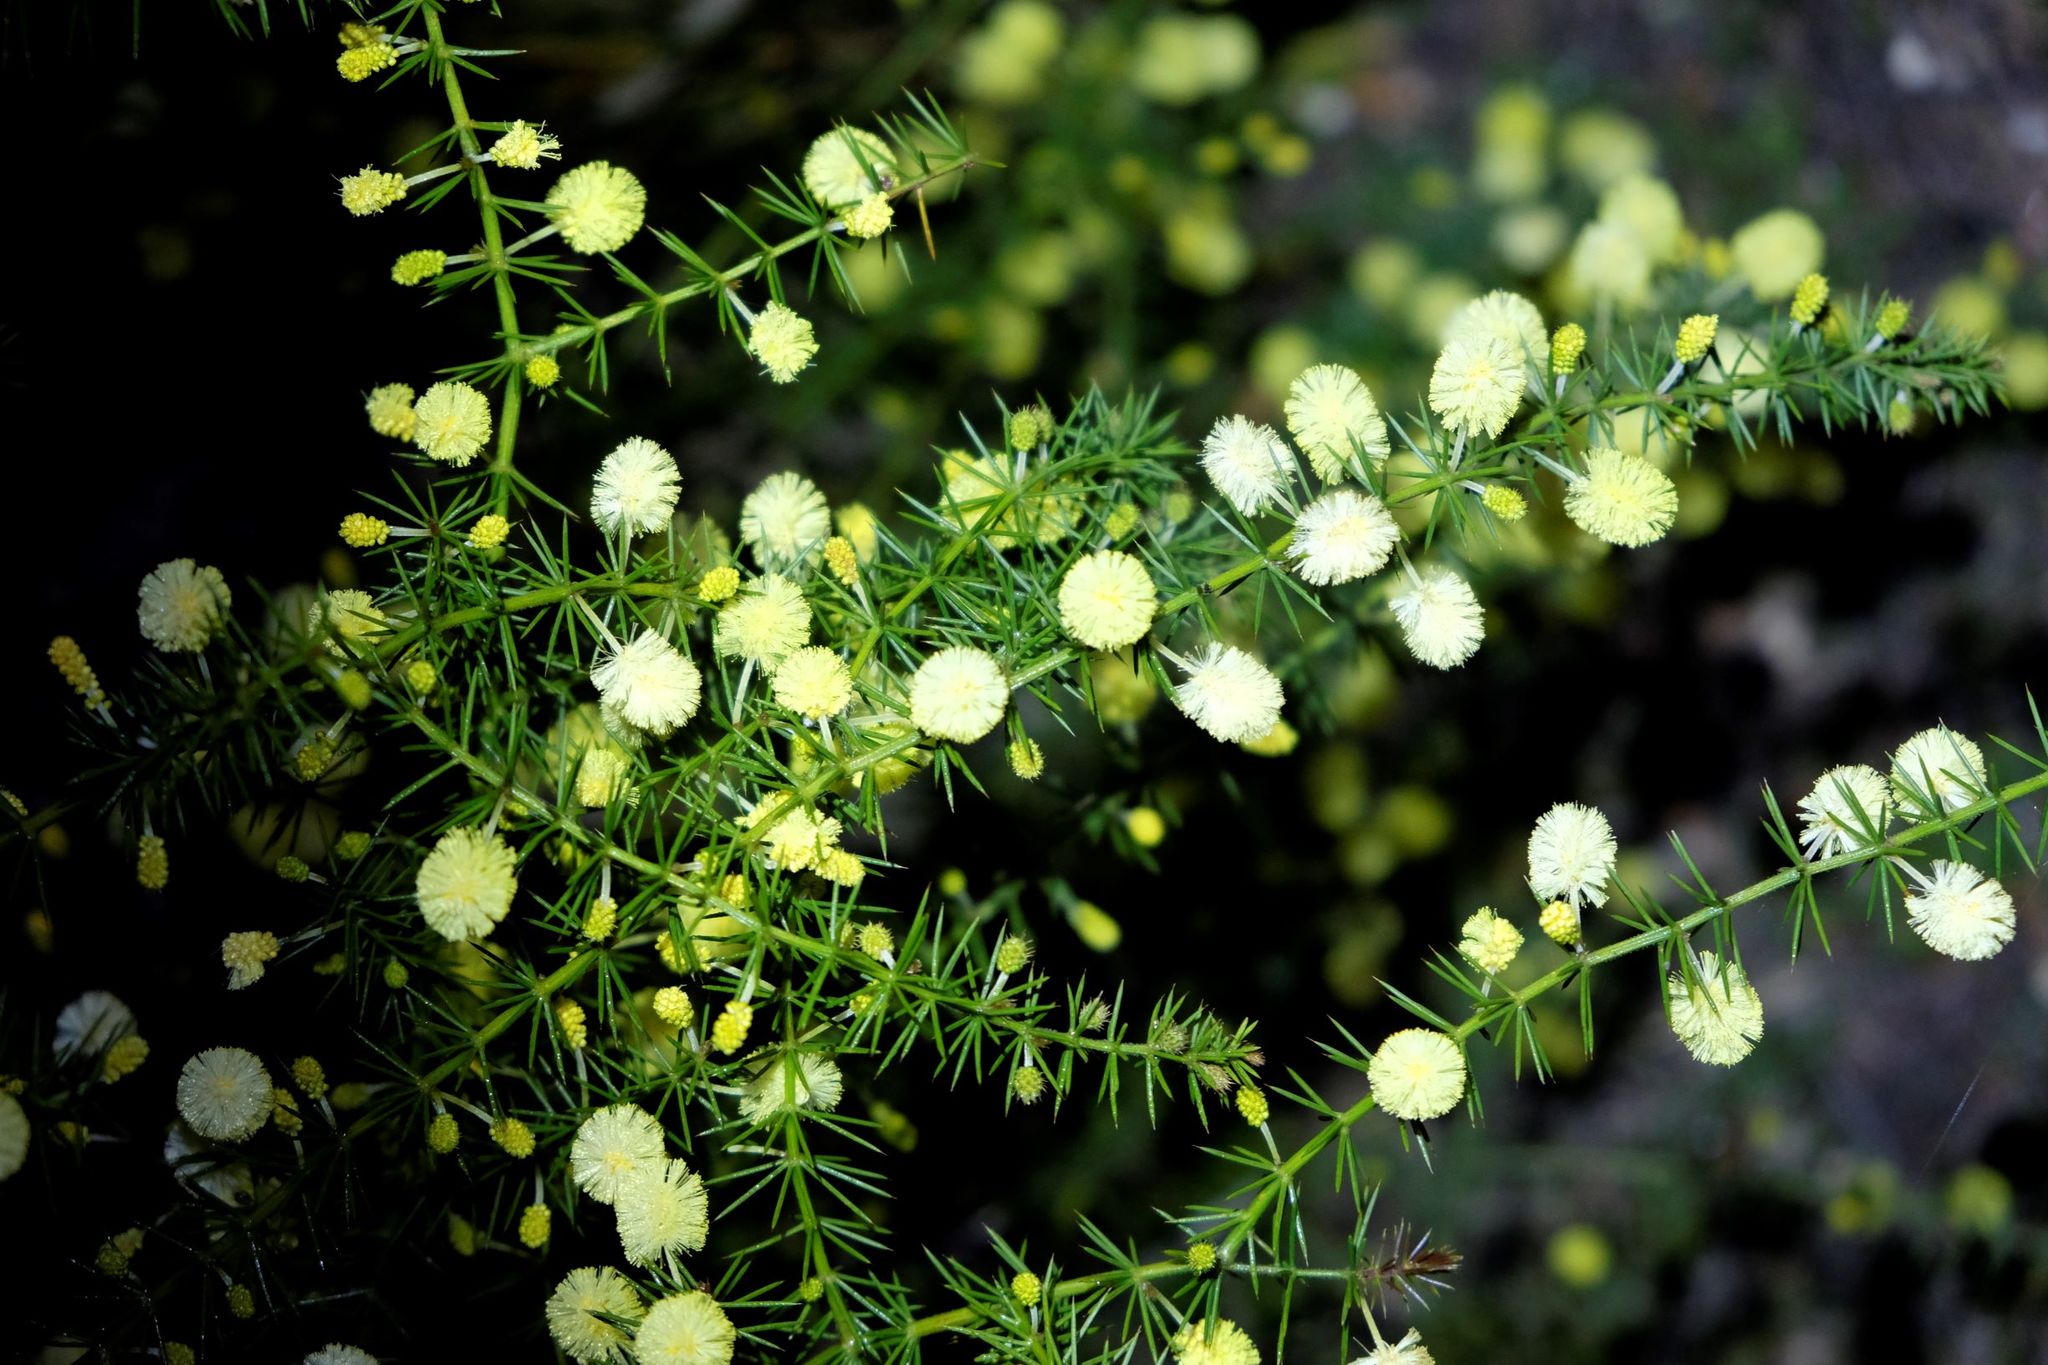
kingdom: Plantae
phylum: Tracheophyta
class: Magnoliopsida
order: Fabales
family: Fabaceae
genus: Acacia
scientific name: Acacia verticillata
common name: Prickly moses
